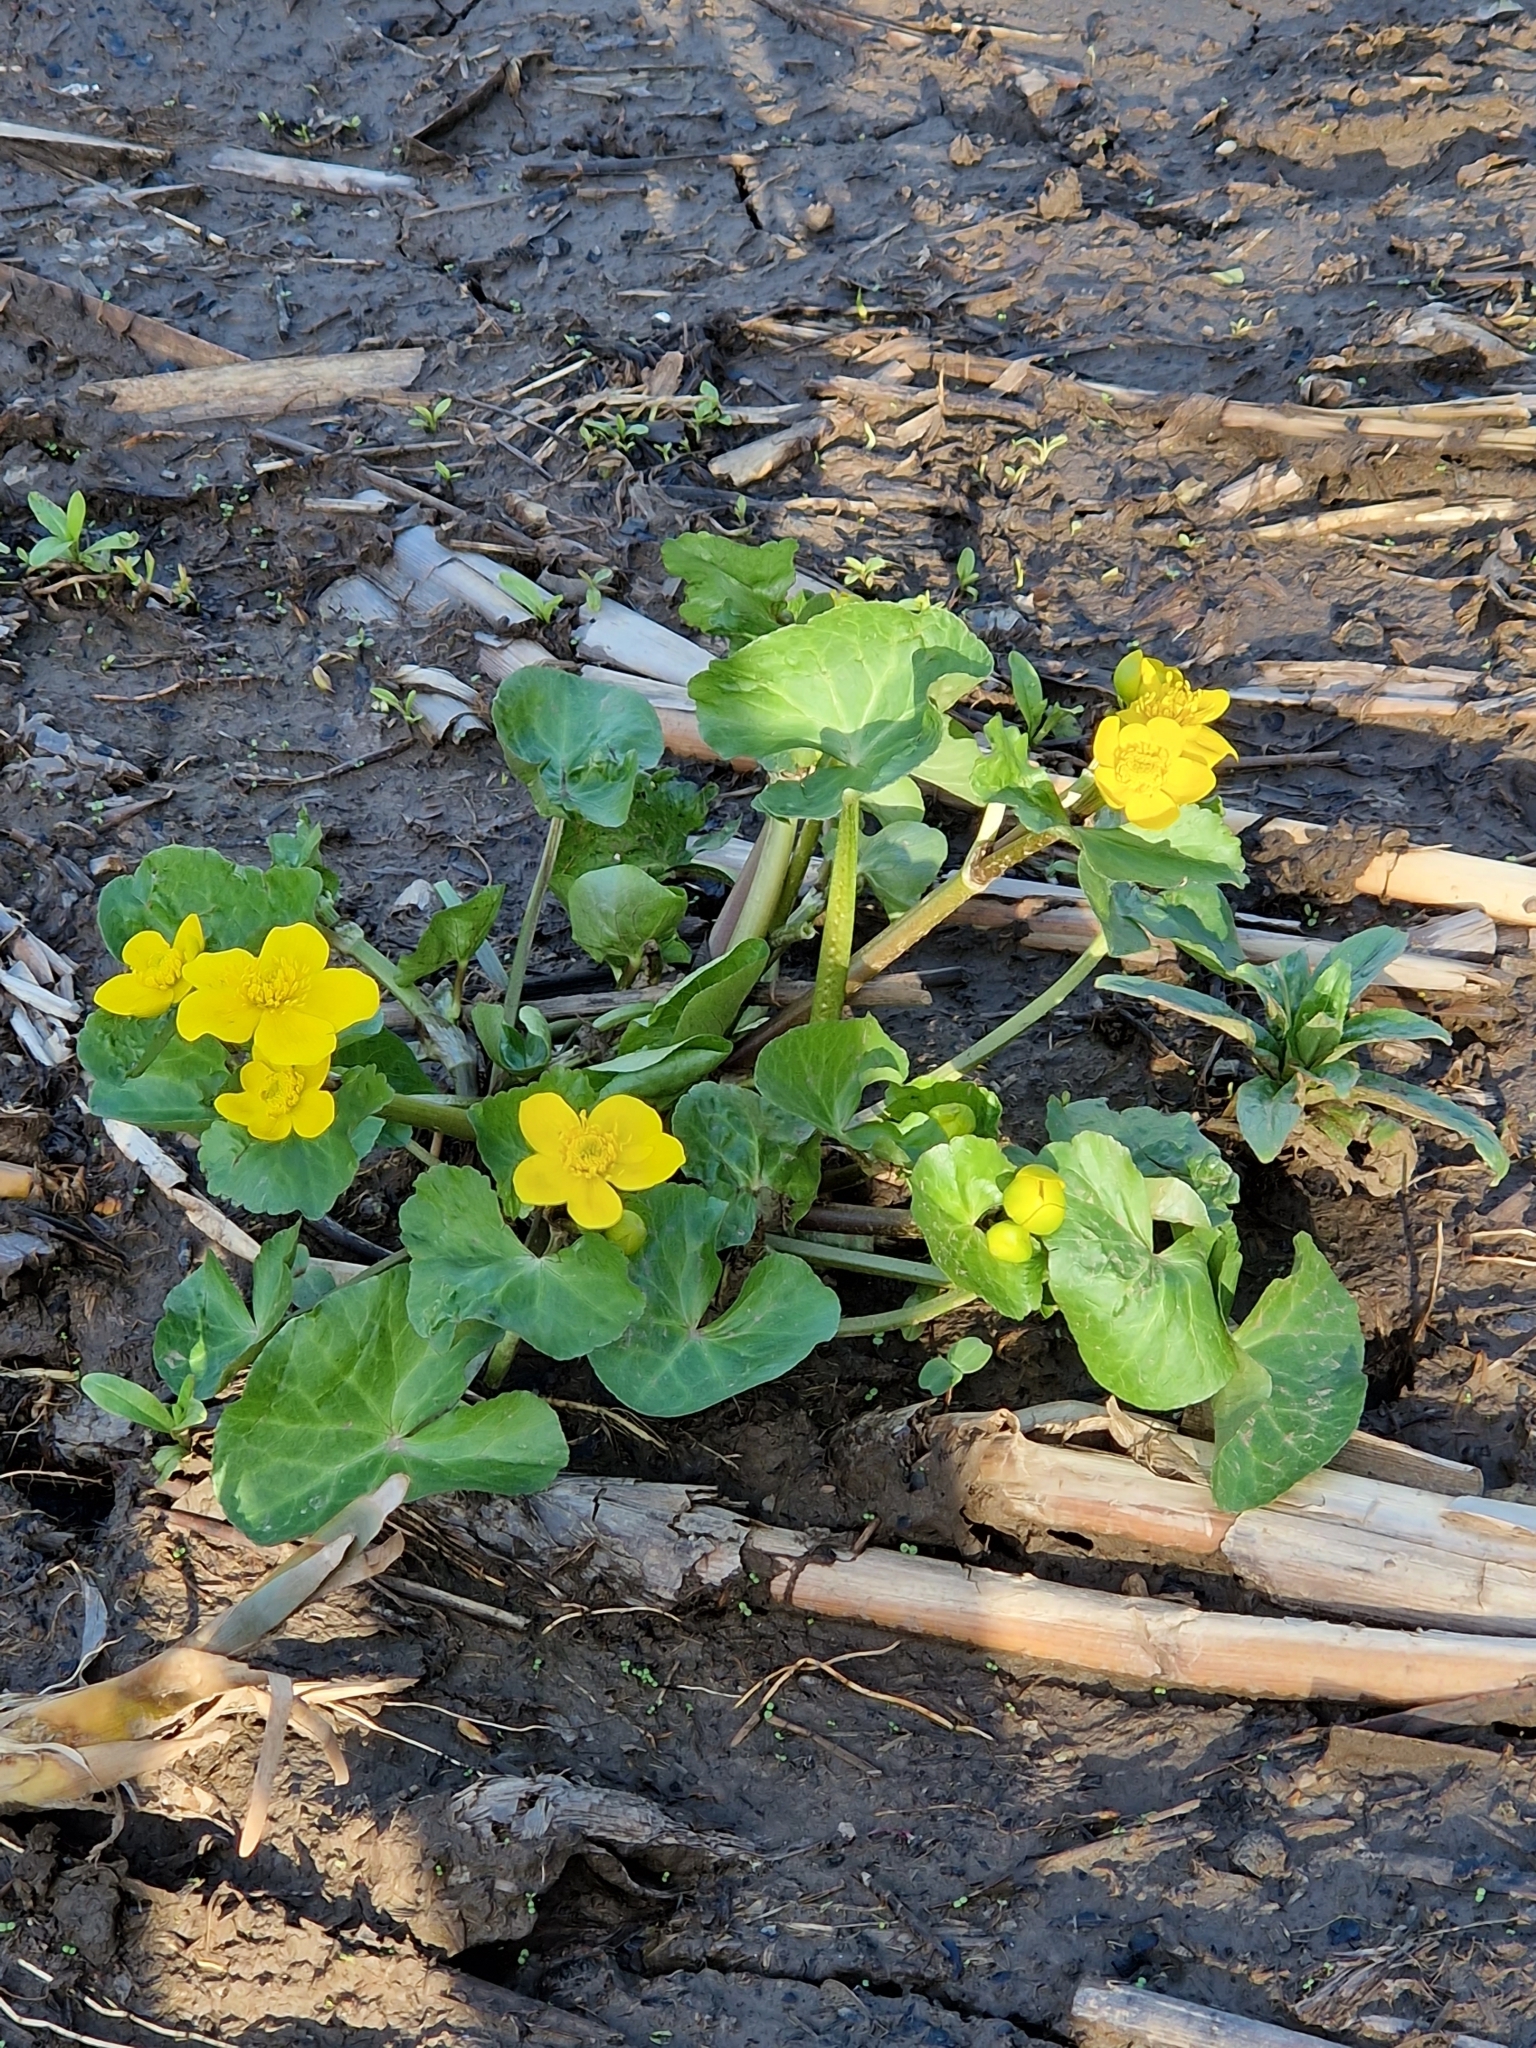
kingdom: Plantae
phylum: Tracheophyta
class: Magnoliopsida
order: Ranunculales
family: Ranunculaceae
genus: Caltha
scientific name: Caltha palustris
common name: Marsh marigold
